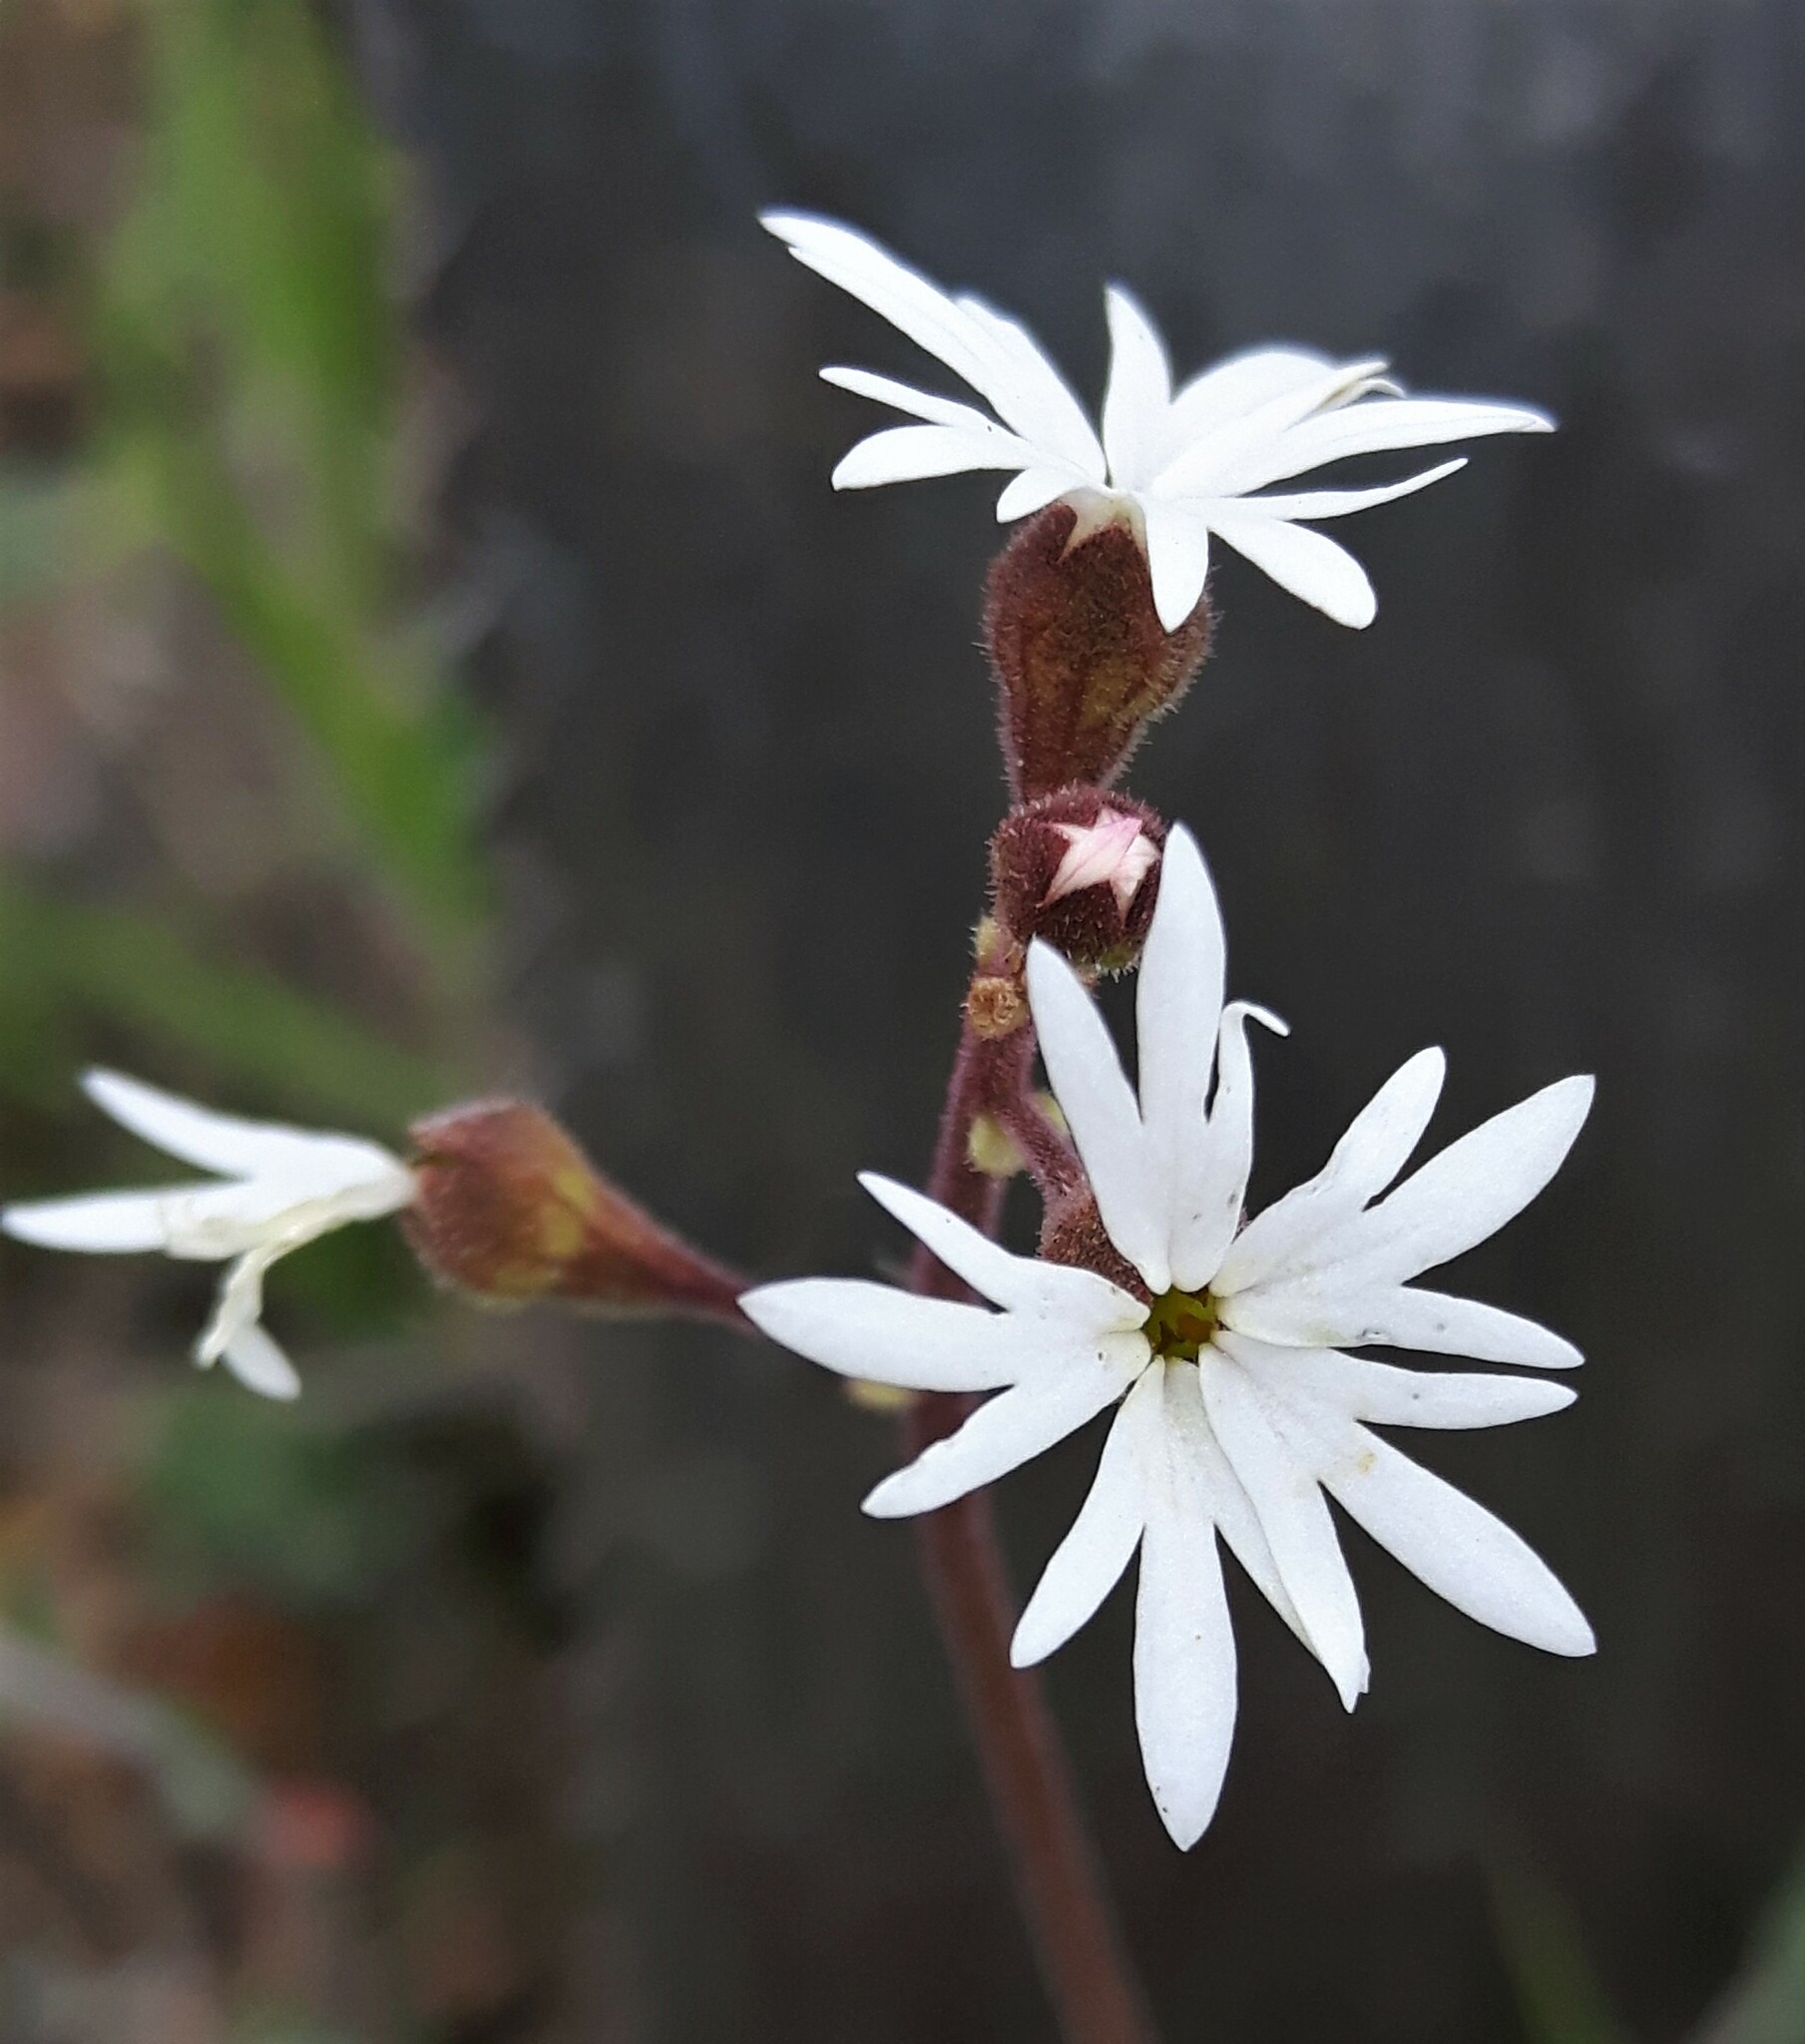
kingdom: Plantae
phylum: Tracheophyta
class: Magnoliopsida
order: Saxifragales
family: Saxifragaceae
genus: Lithophragma
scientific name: Lithophragma parviflorum
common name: Small-flowered fringe-cup
